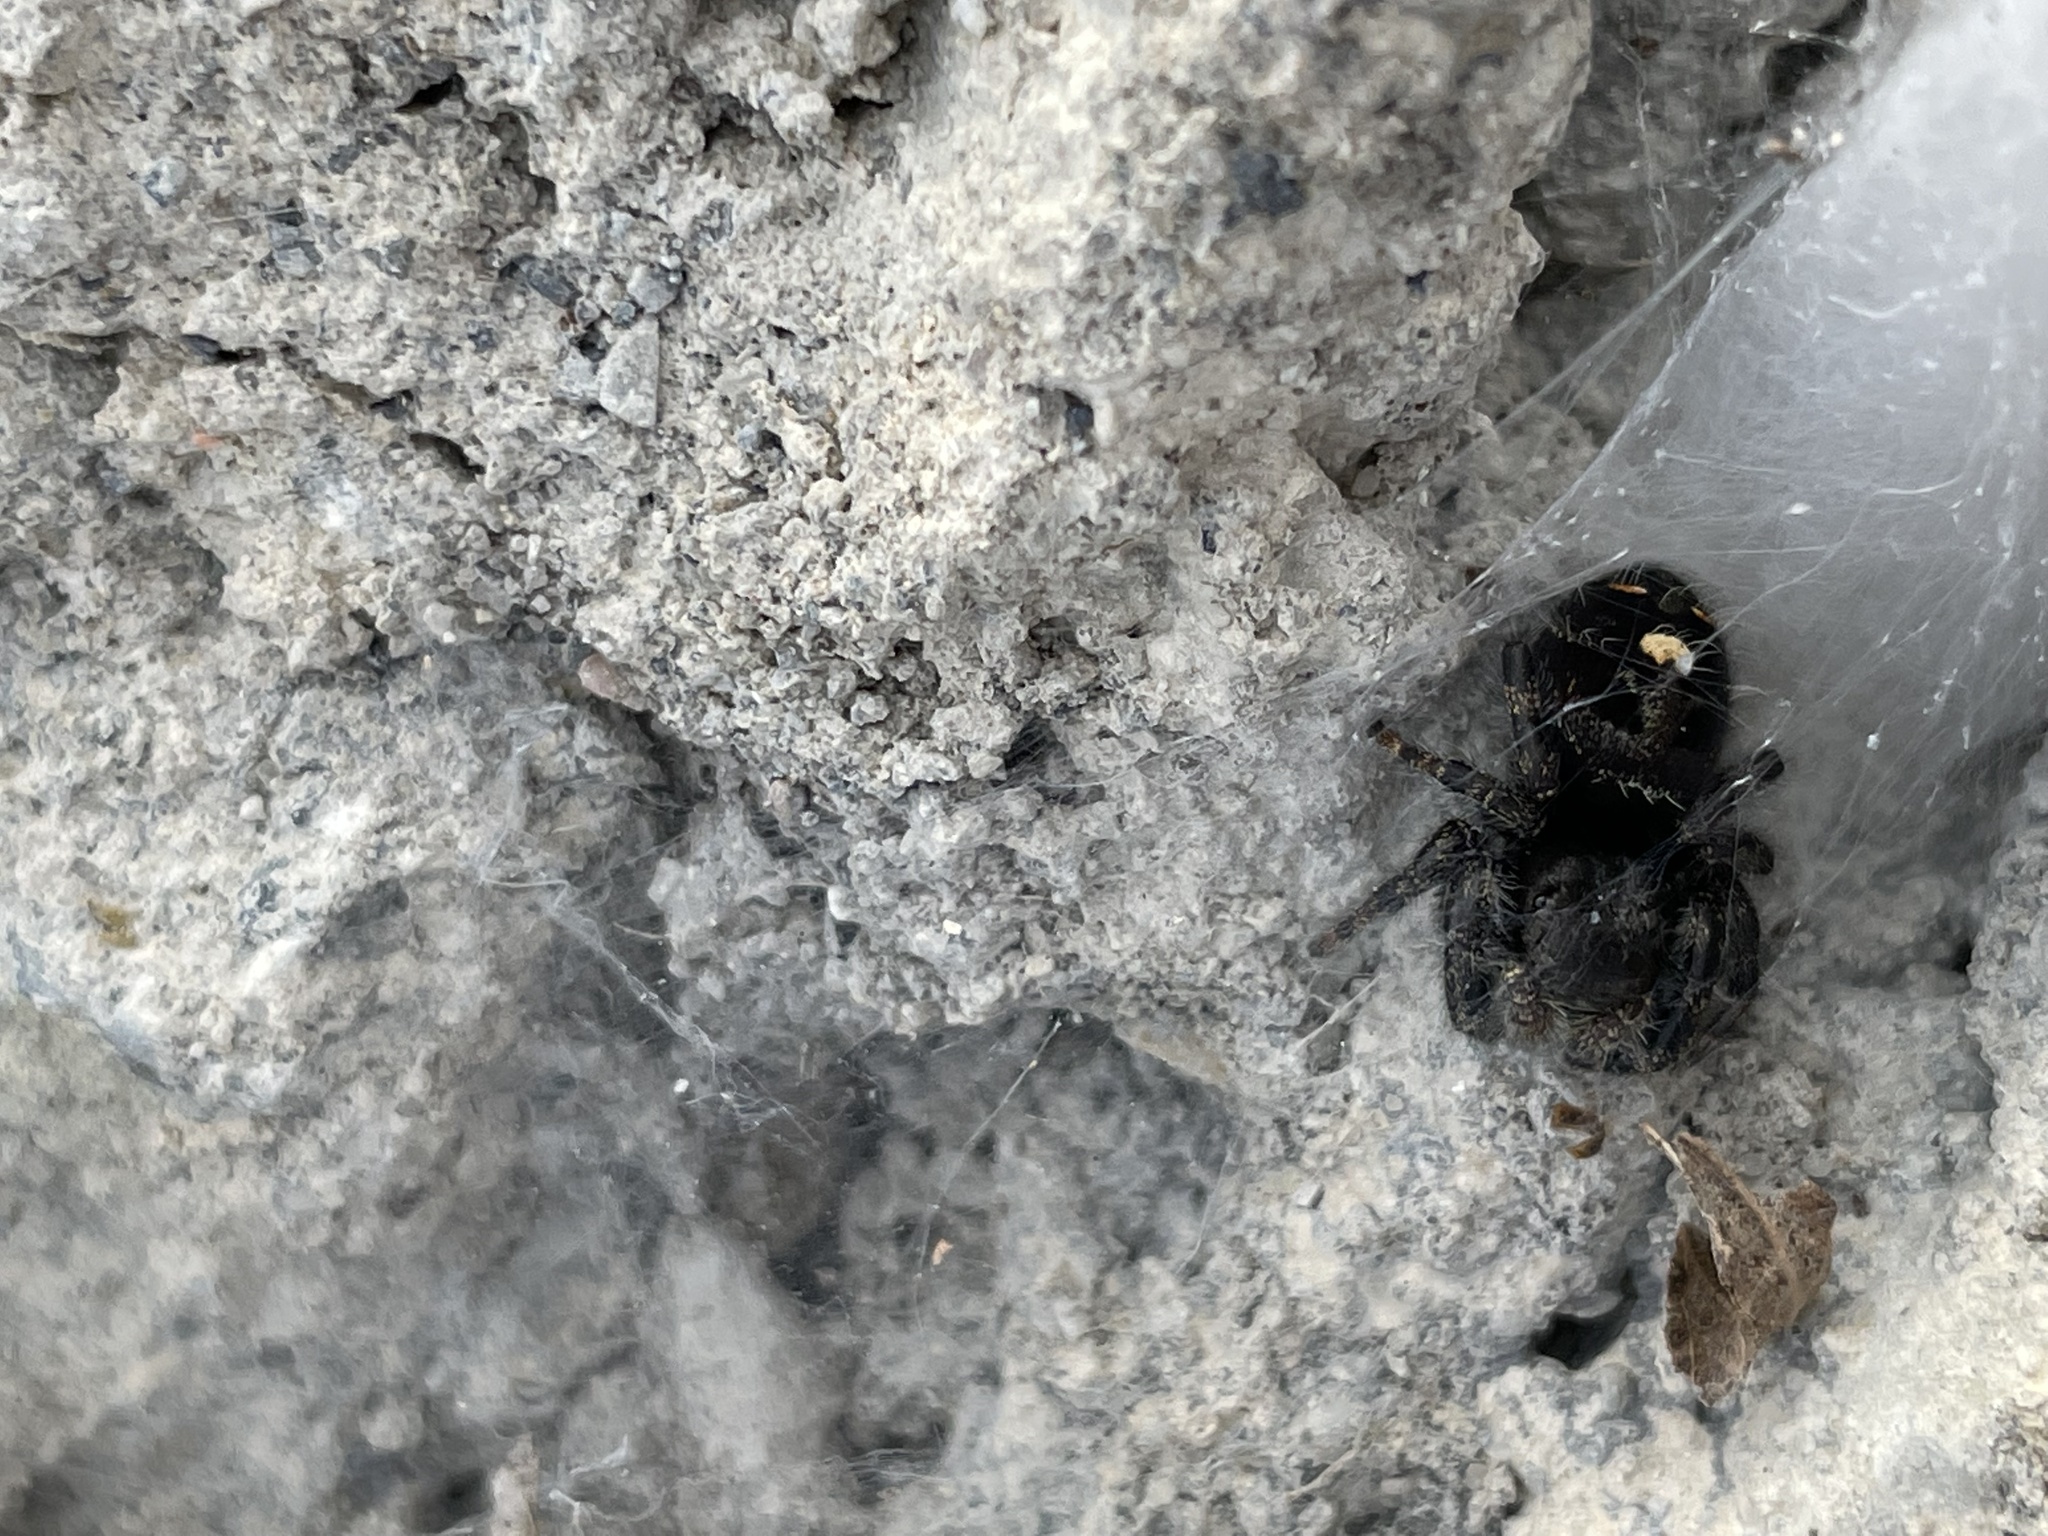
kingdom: Animalia
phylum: Arthropoda
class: Arachnida
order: Araneae
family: Salticidae
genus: Phidippus
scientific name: Phidippus audax
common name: Bold jumper
